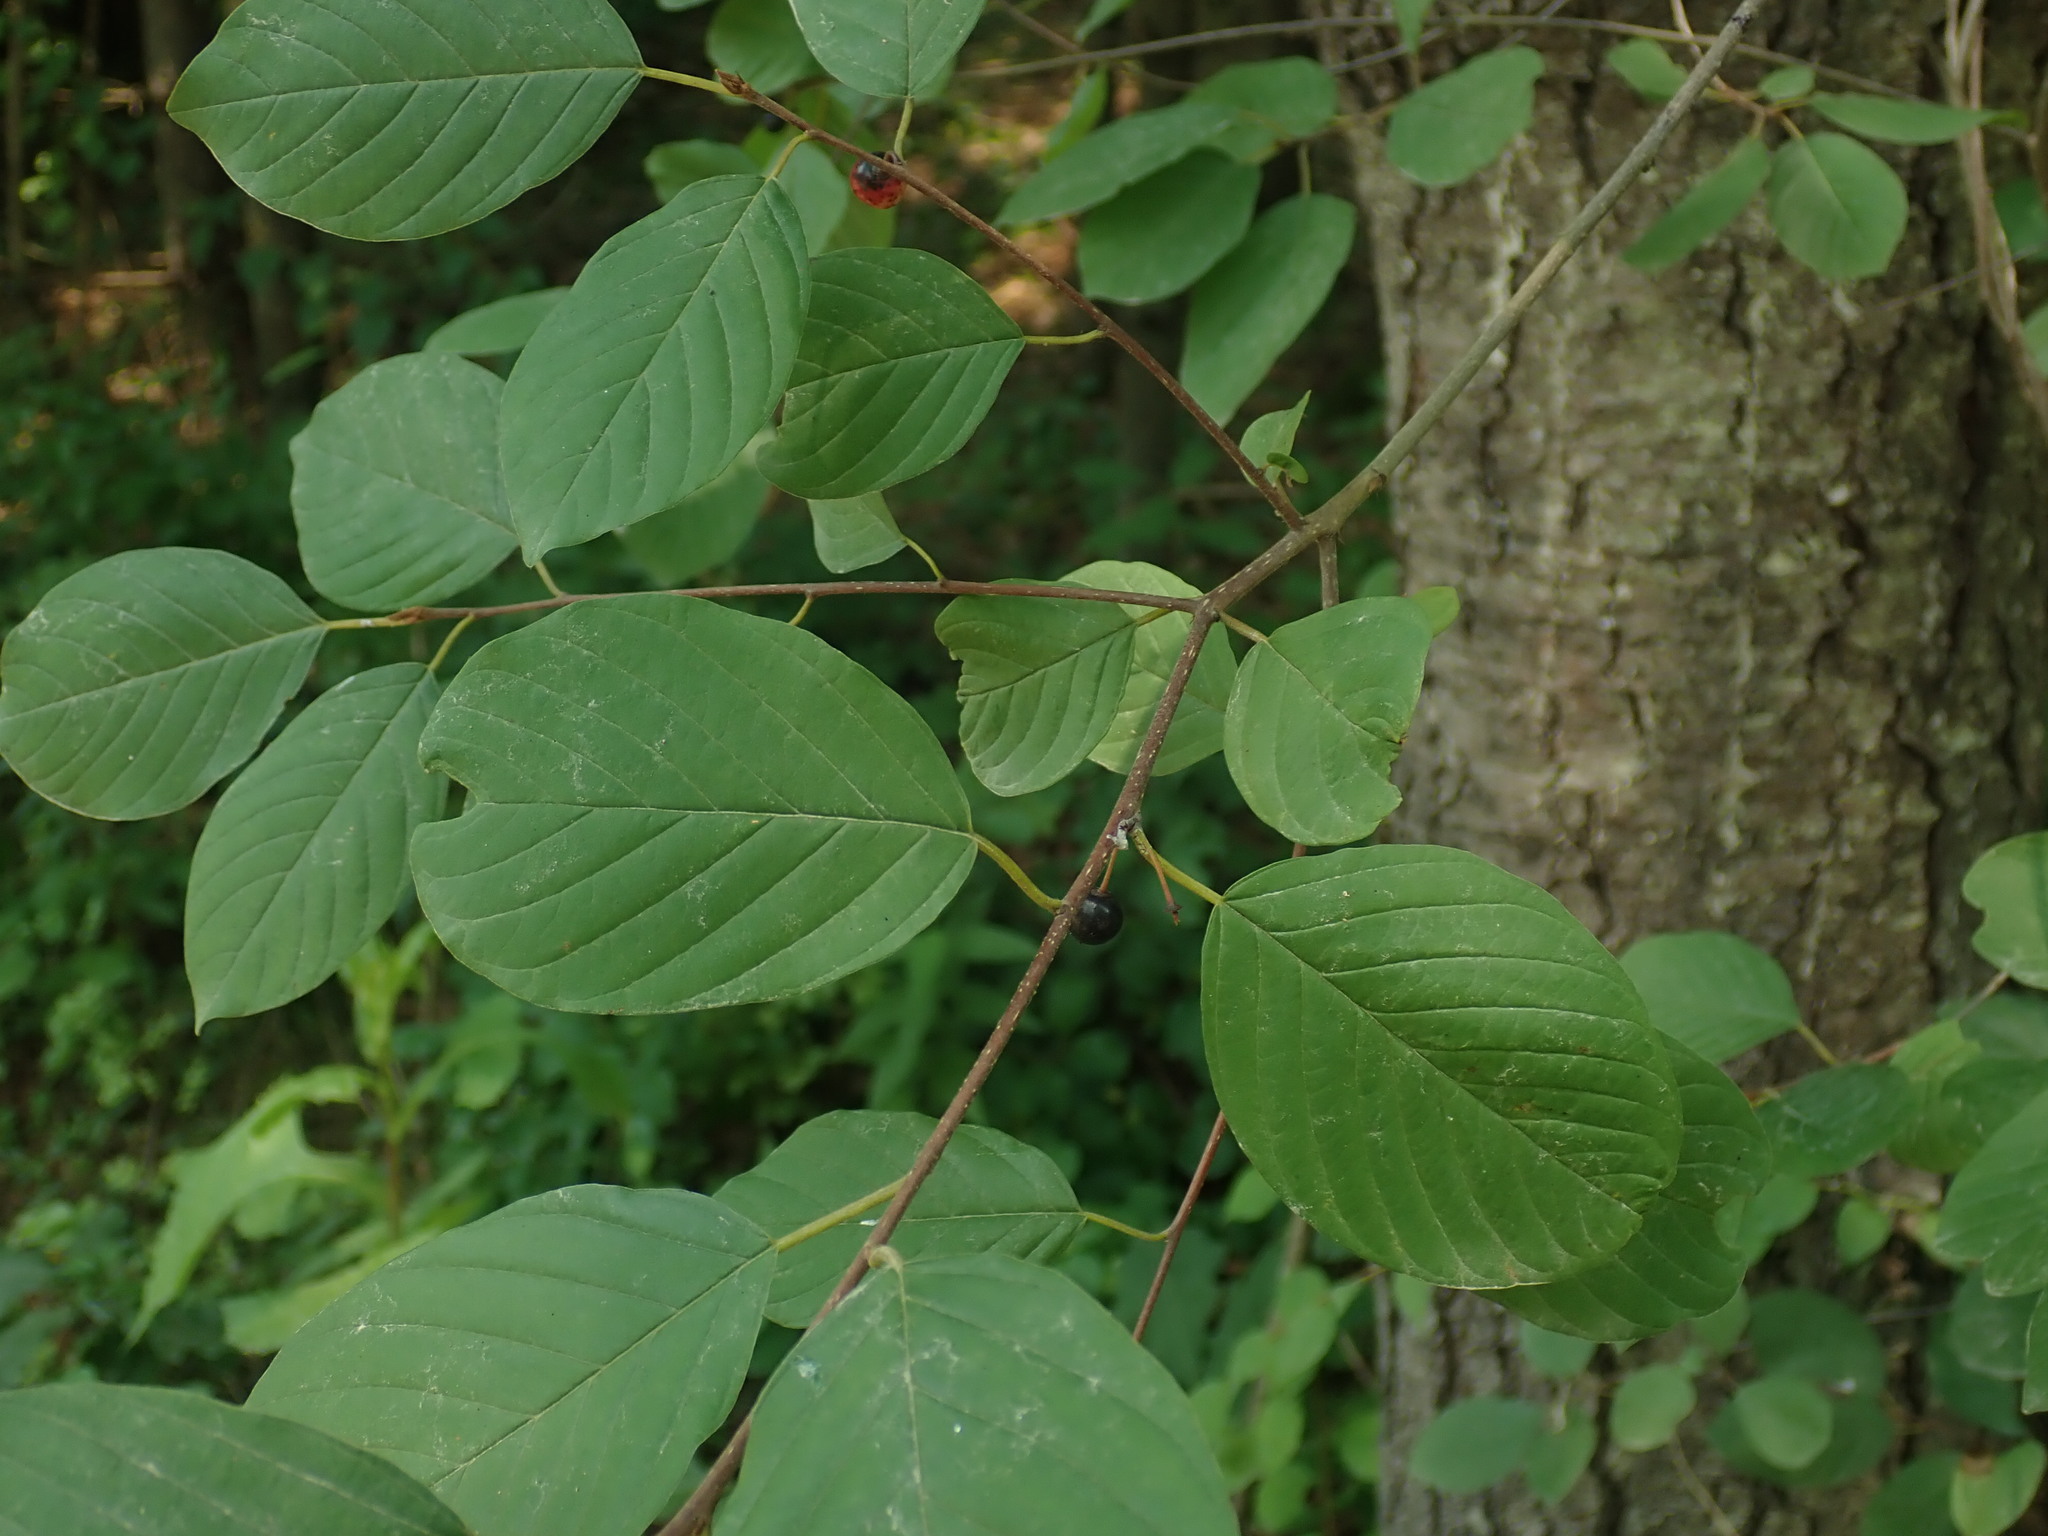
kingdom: Plantae
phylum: Tracheophyta
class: Magnoliopsida
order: Rosales
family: Rhamnaceae
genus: Frangula
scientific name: Frangula alnus
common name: Alder buckthorn
